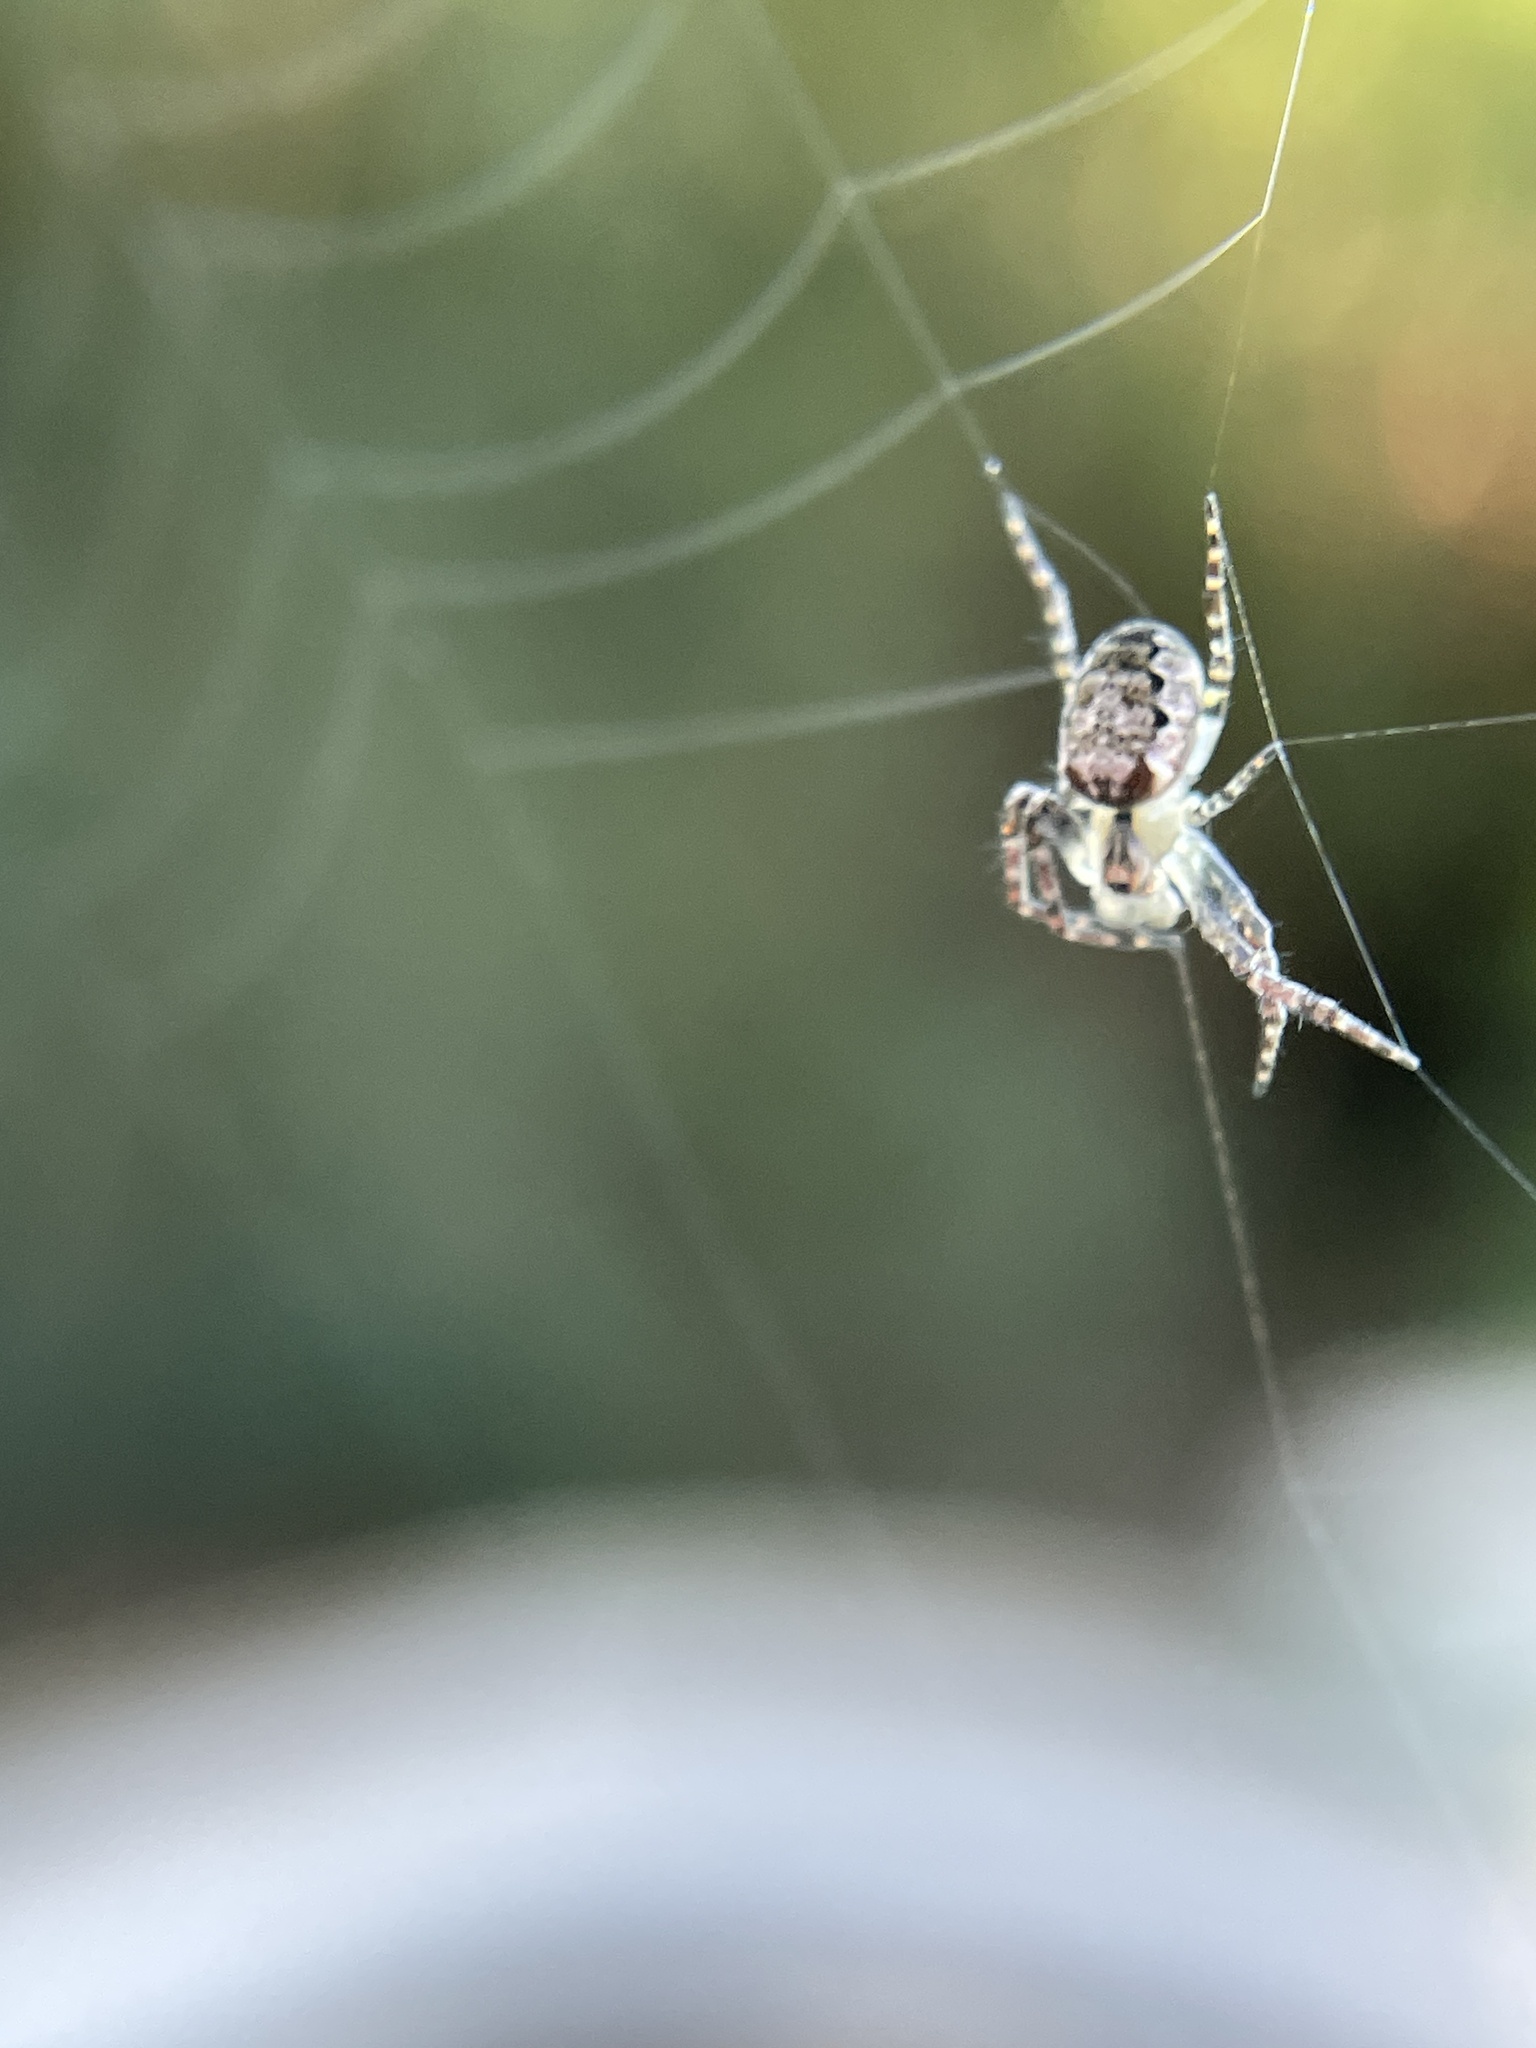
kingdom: Animalia
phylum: Arthropoda
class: Arachnida
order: Araneae
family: Araneidae
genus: Plebs
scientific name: Plebs eburnus
